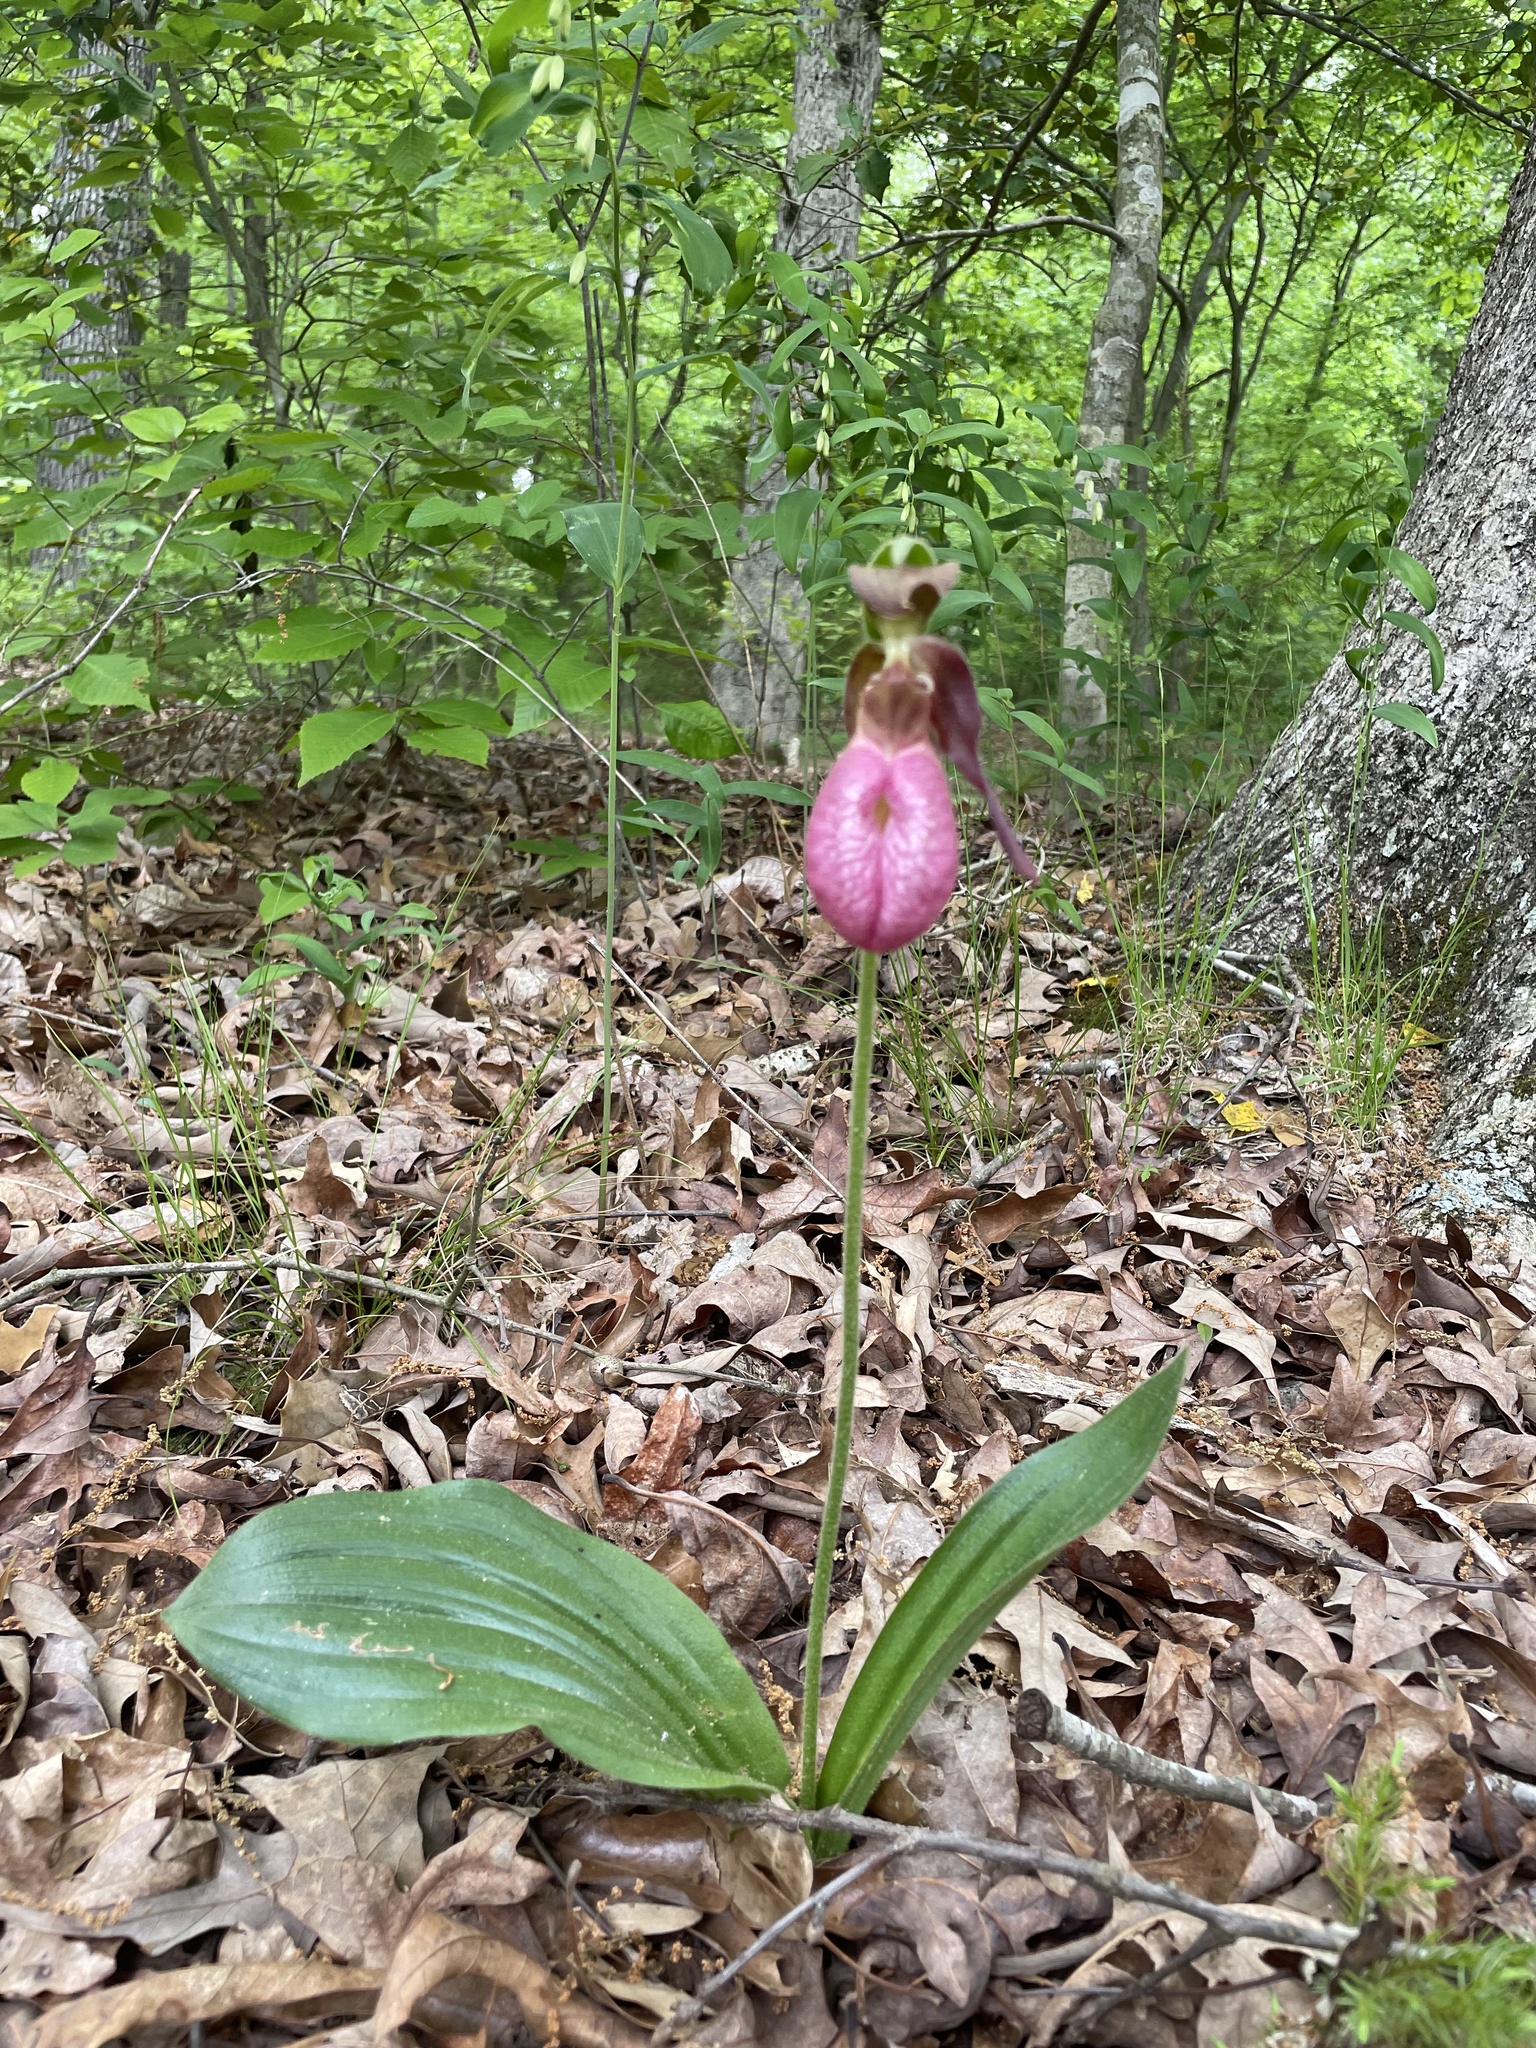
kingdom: Plantae
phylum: Tracheophyta
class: Liliopsida
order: Asparagales
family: Orchidaceae
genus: Cypripedium
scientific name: Cypripedium acaule
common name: Pink lady's-slipper
